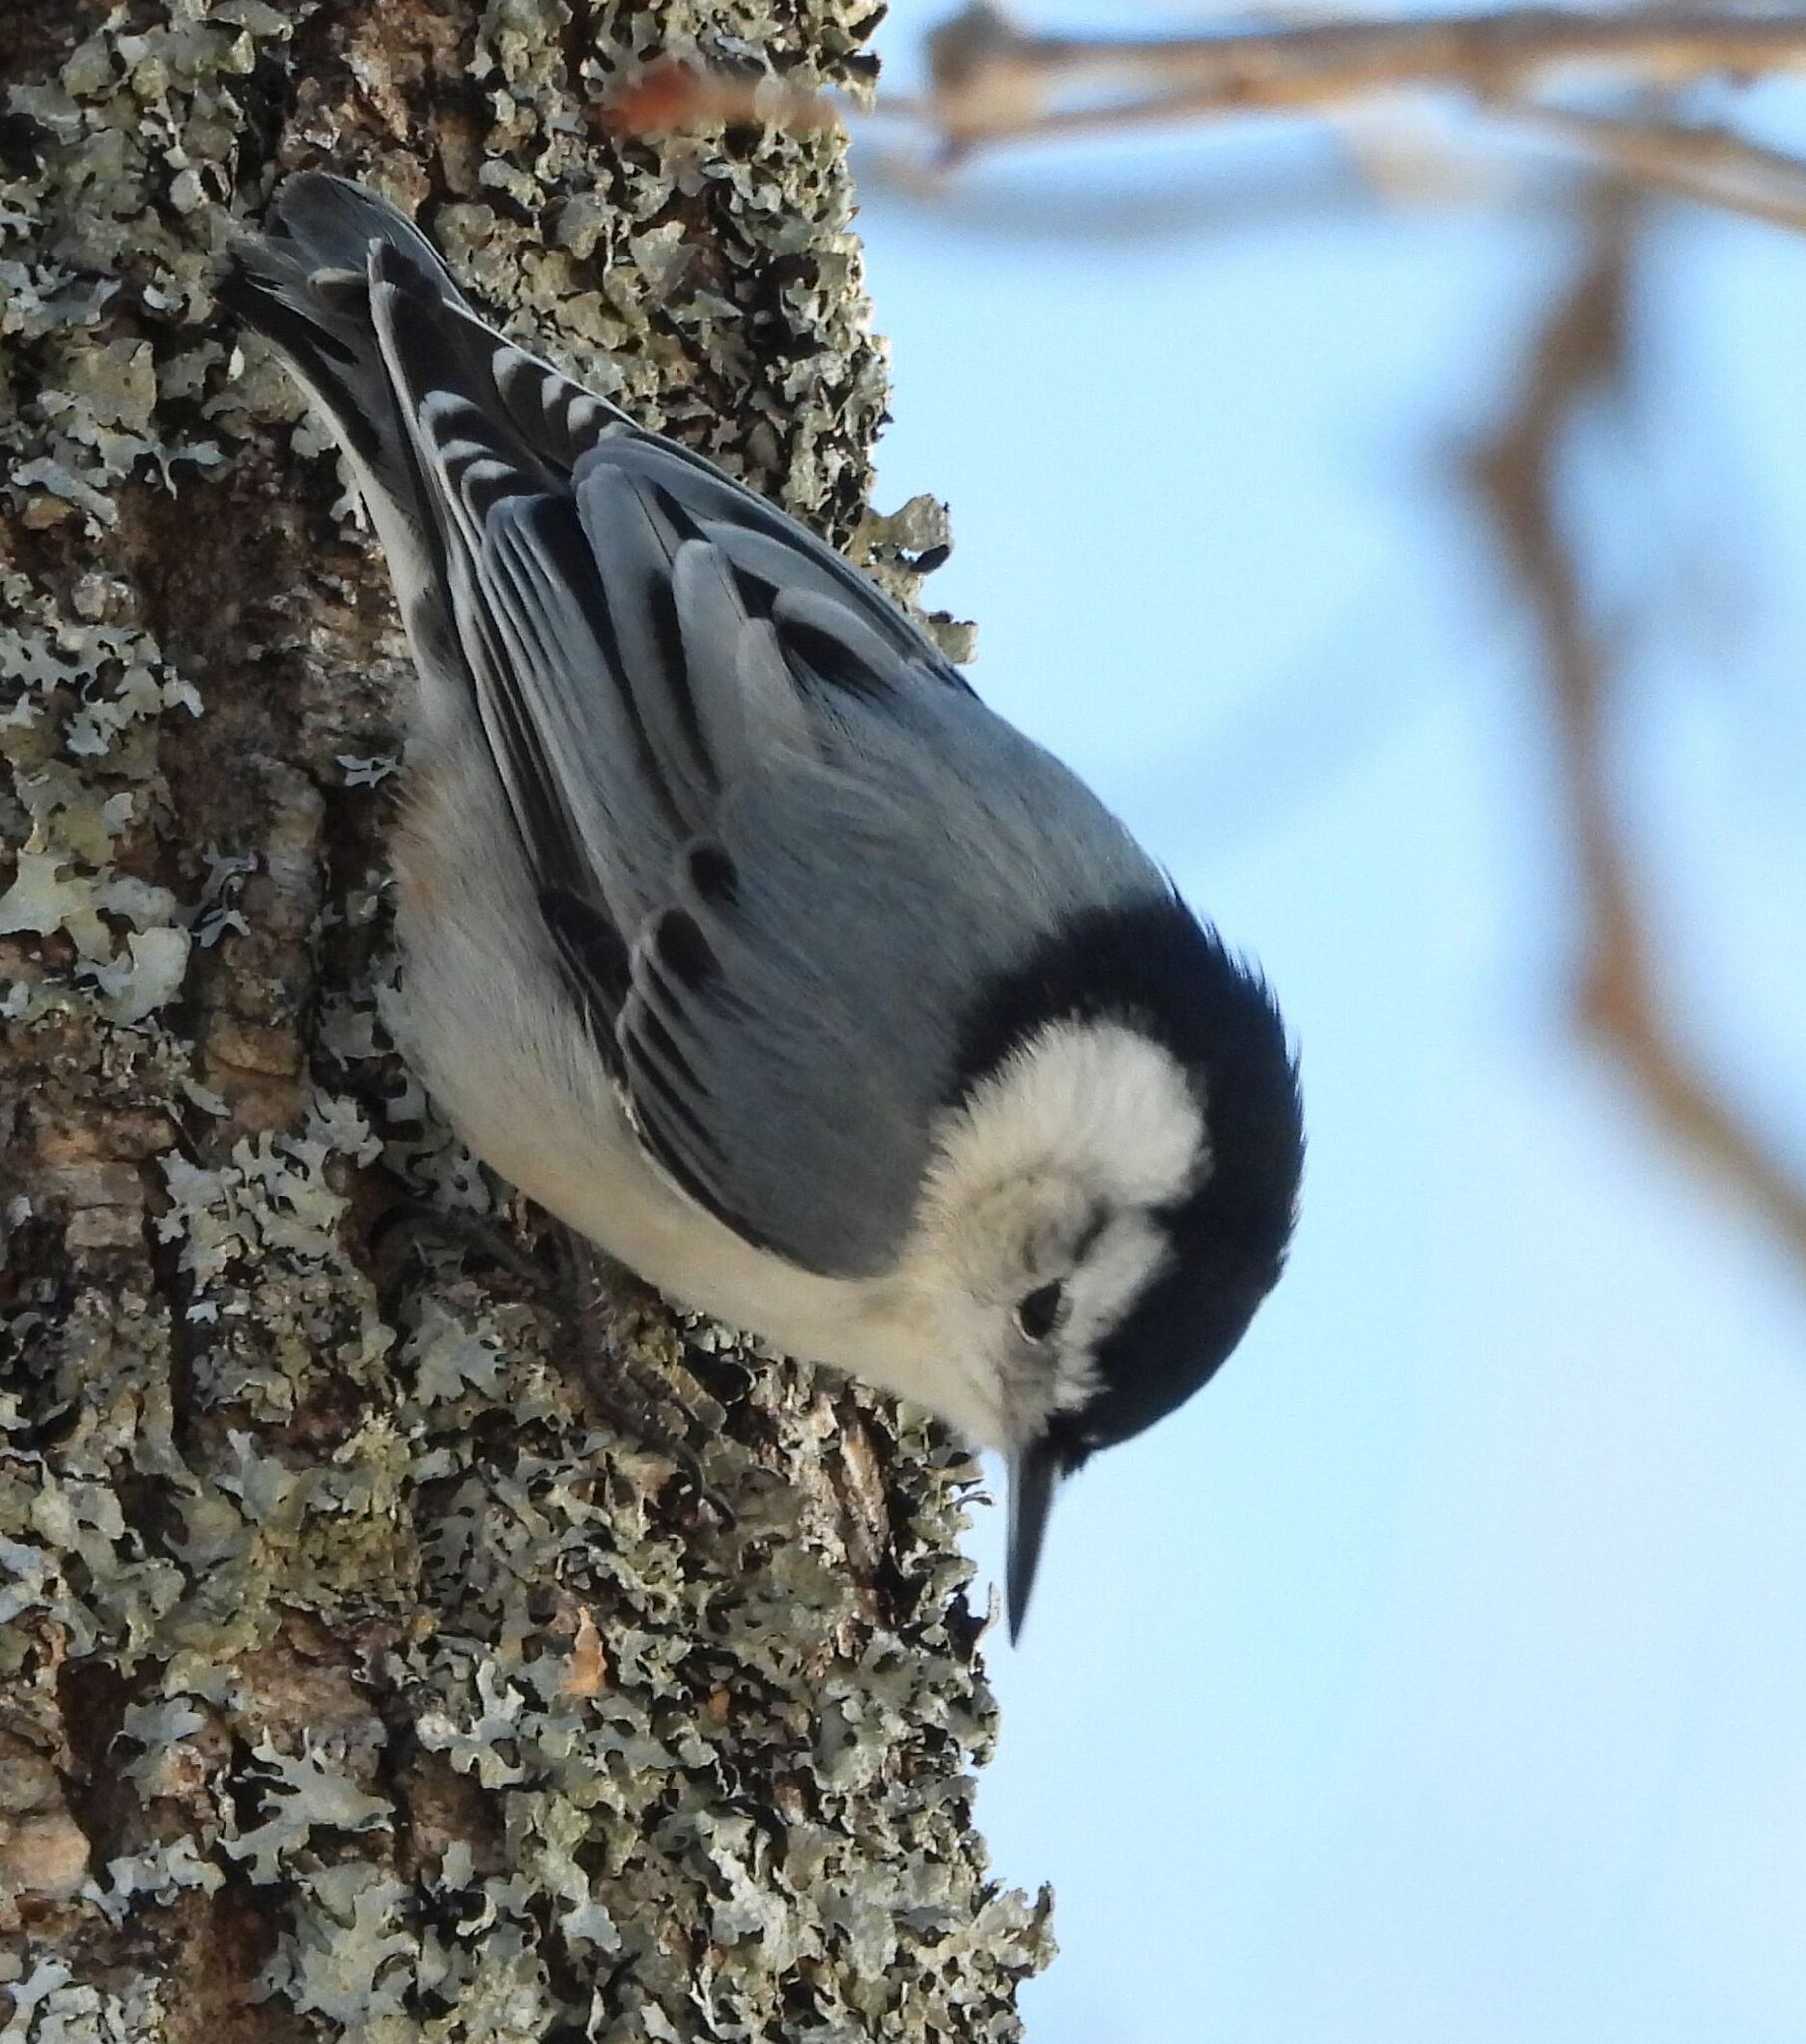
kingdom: Animalia
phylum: Chordata
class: Aves
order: Passeriformes
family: Sittidae
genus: Sitta
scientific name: Sitta carolinensis
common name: White-breasted nuthatch
